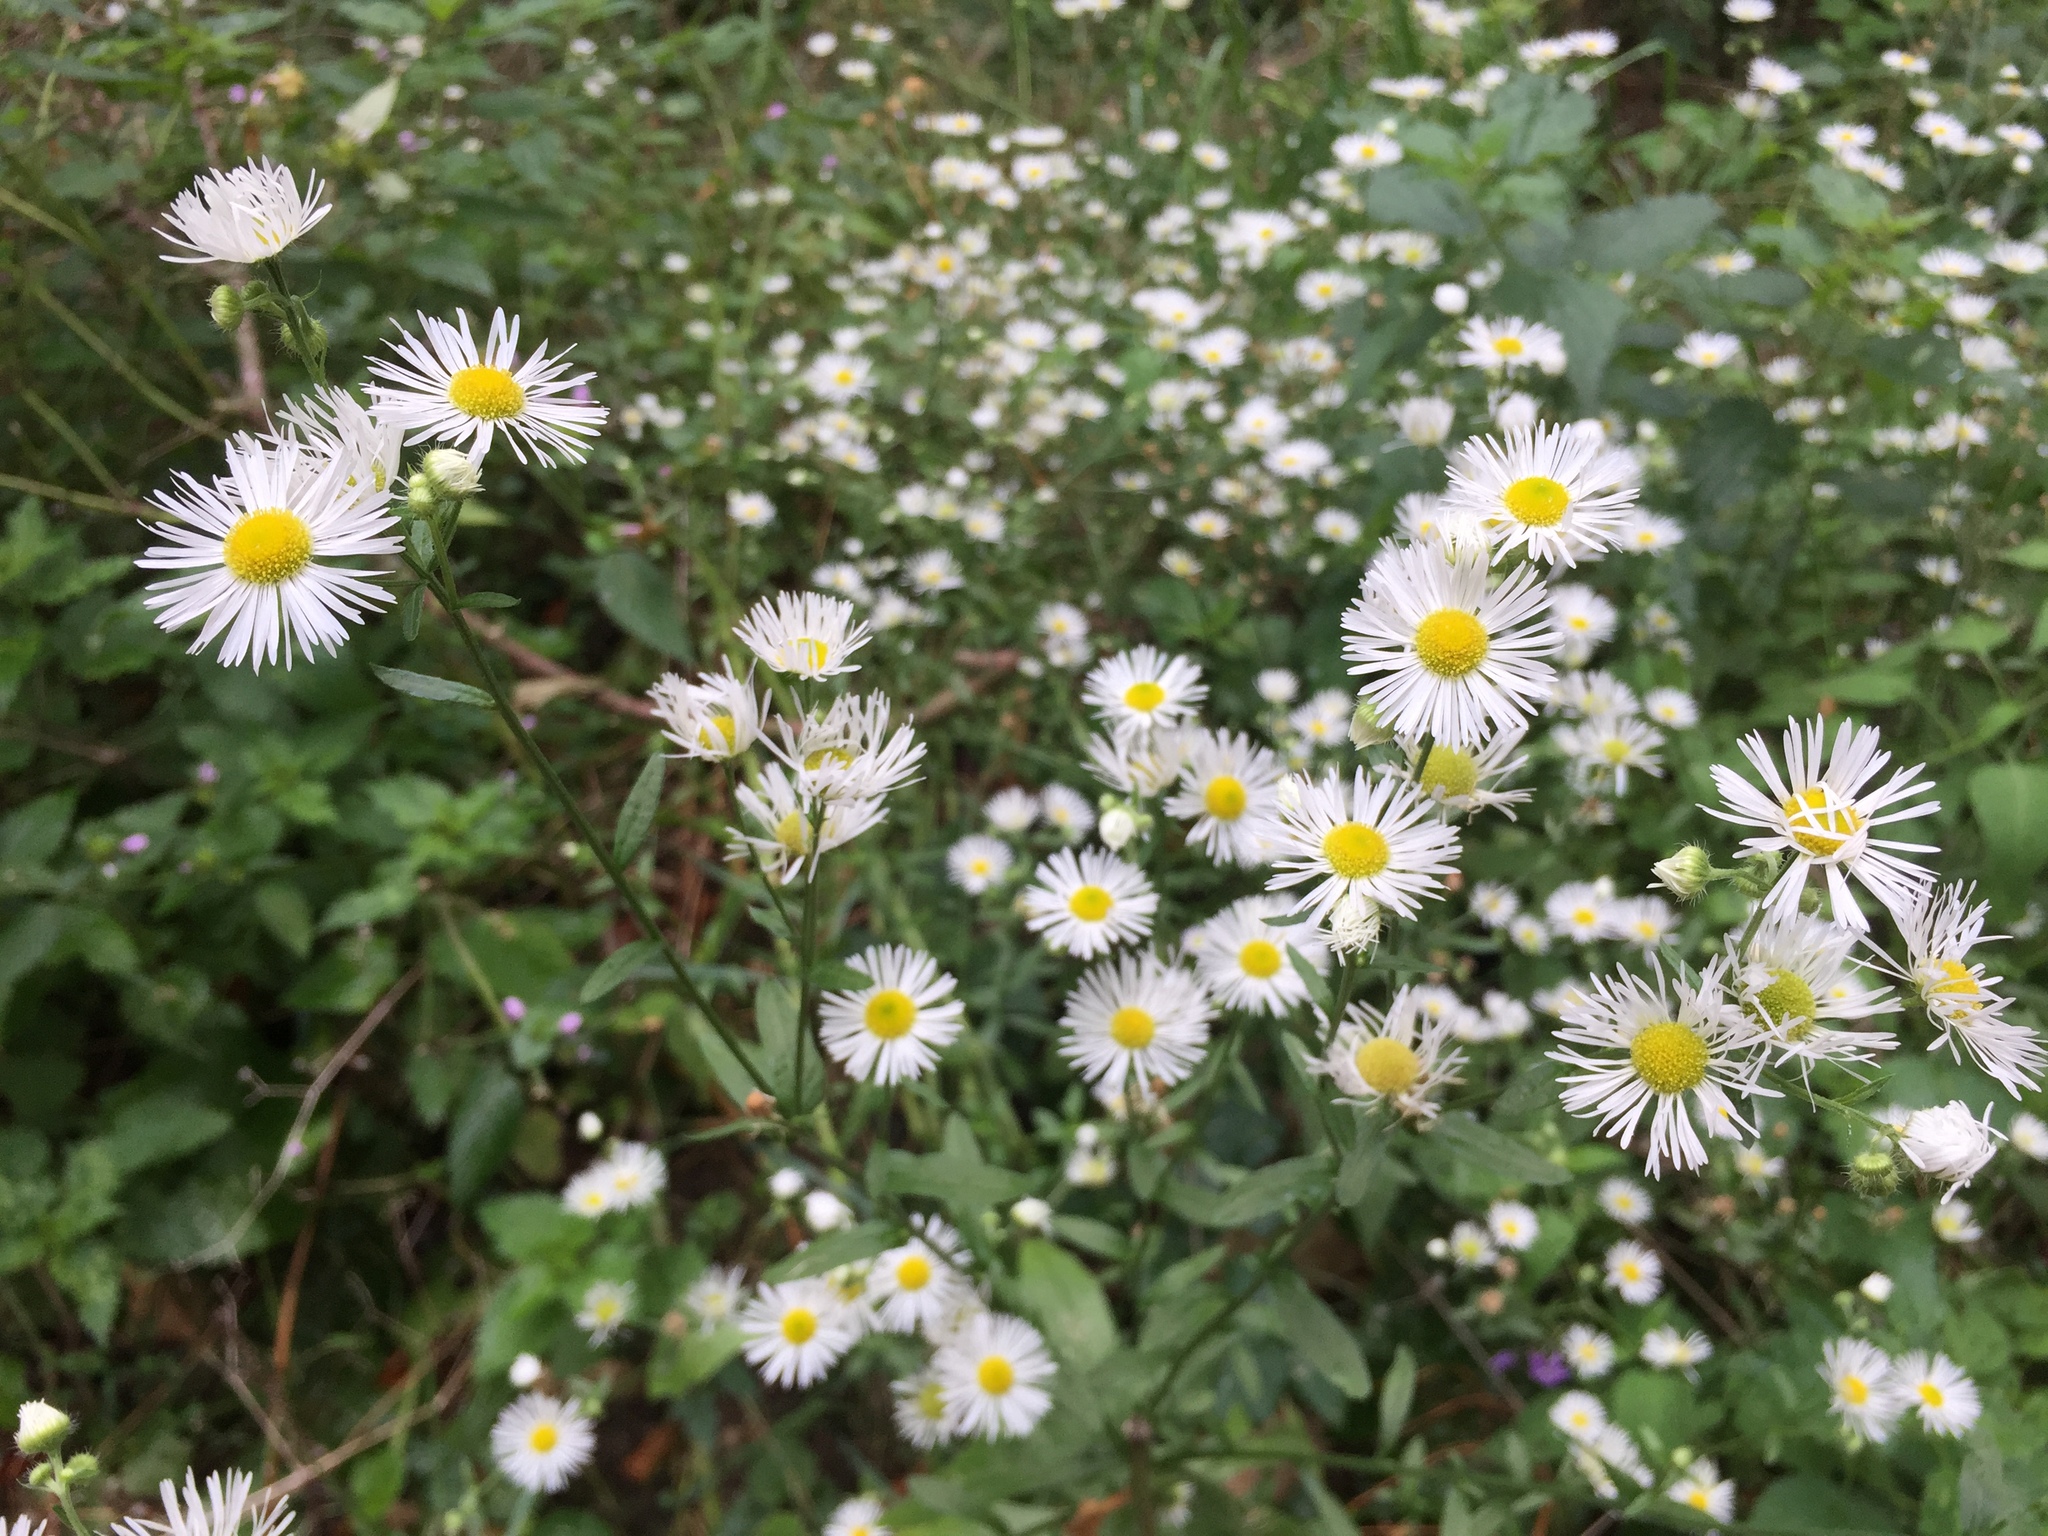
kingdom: Plantae
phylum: Tracheophyta
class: Magnoliopsida
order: Asterales
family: Asteraceae
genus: Erigeron
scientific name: Erigeron annuus
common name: Tall fleabane
